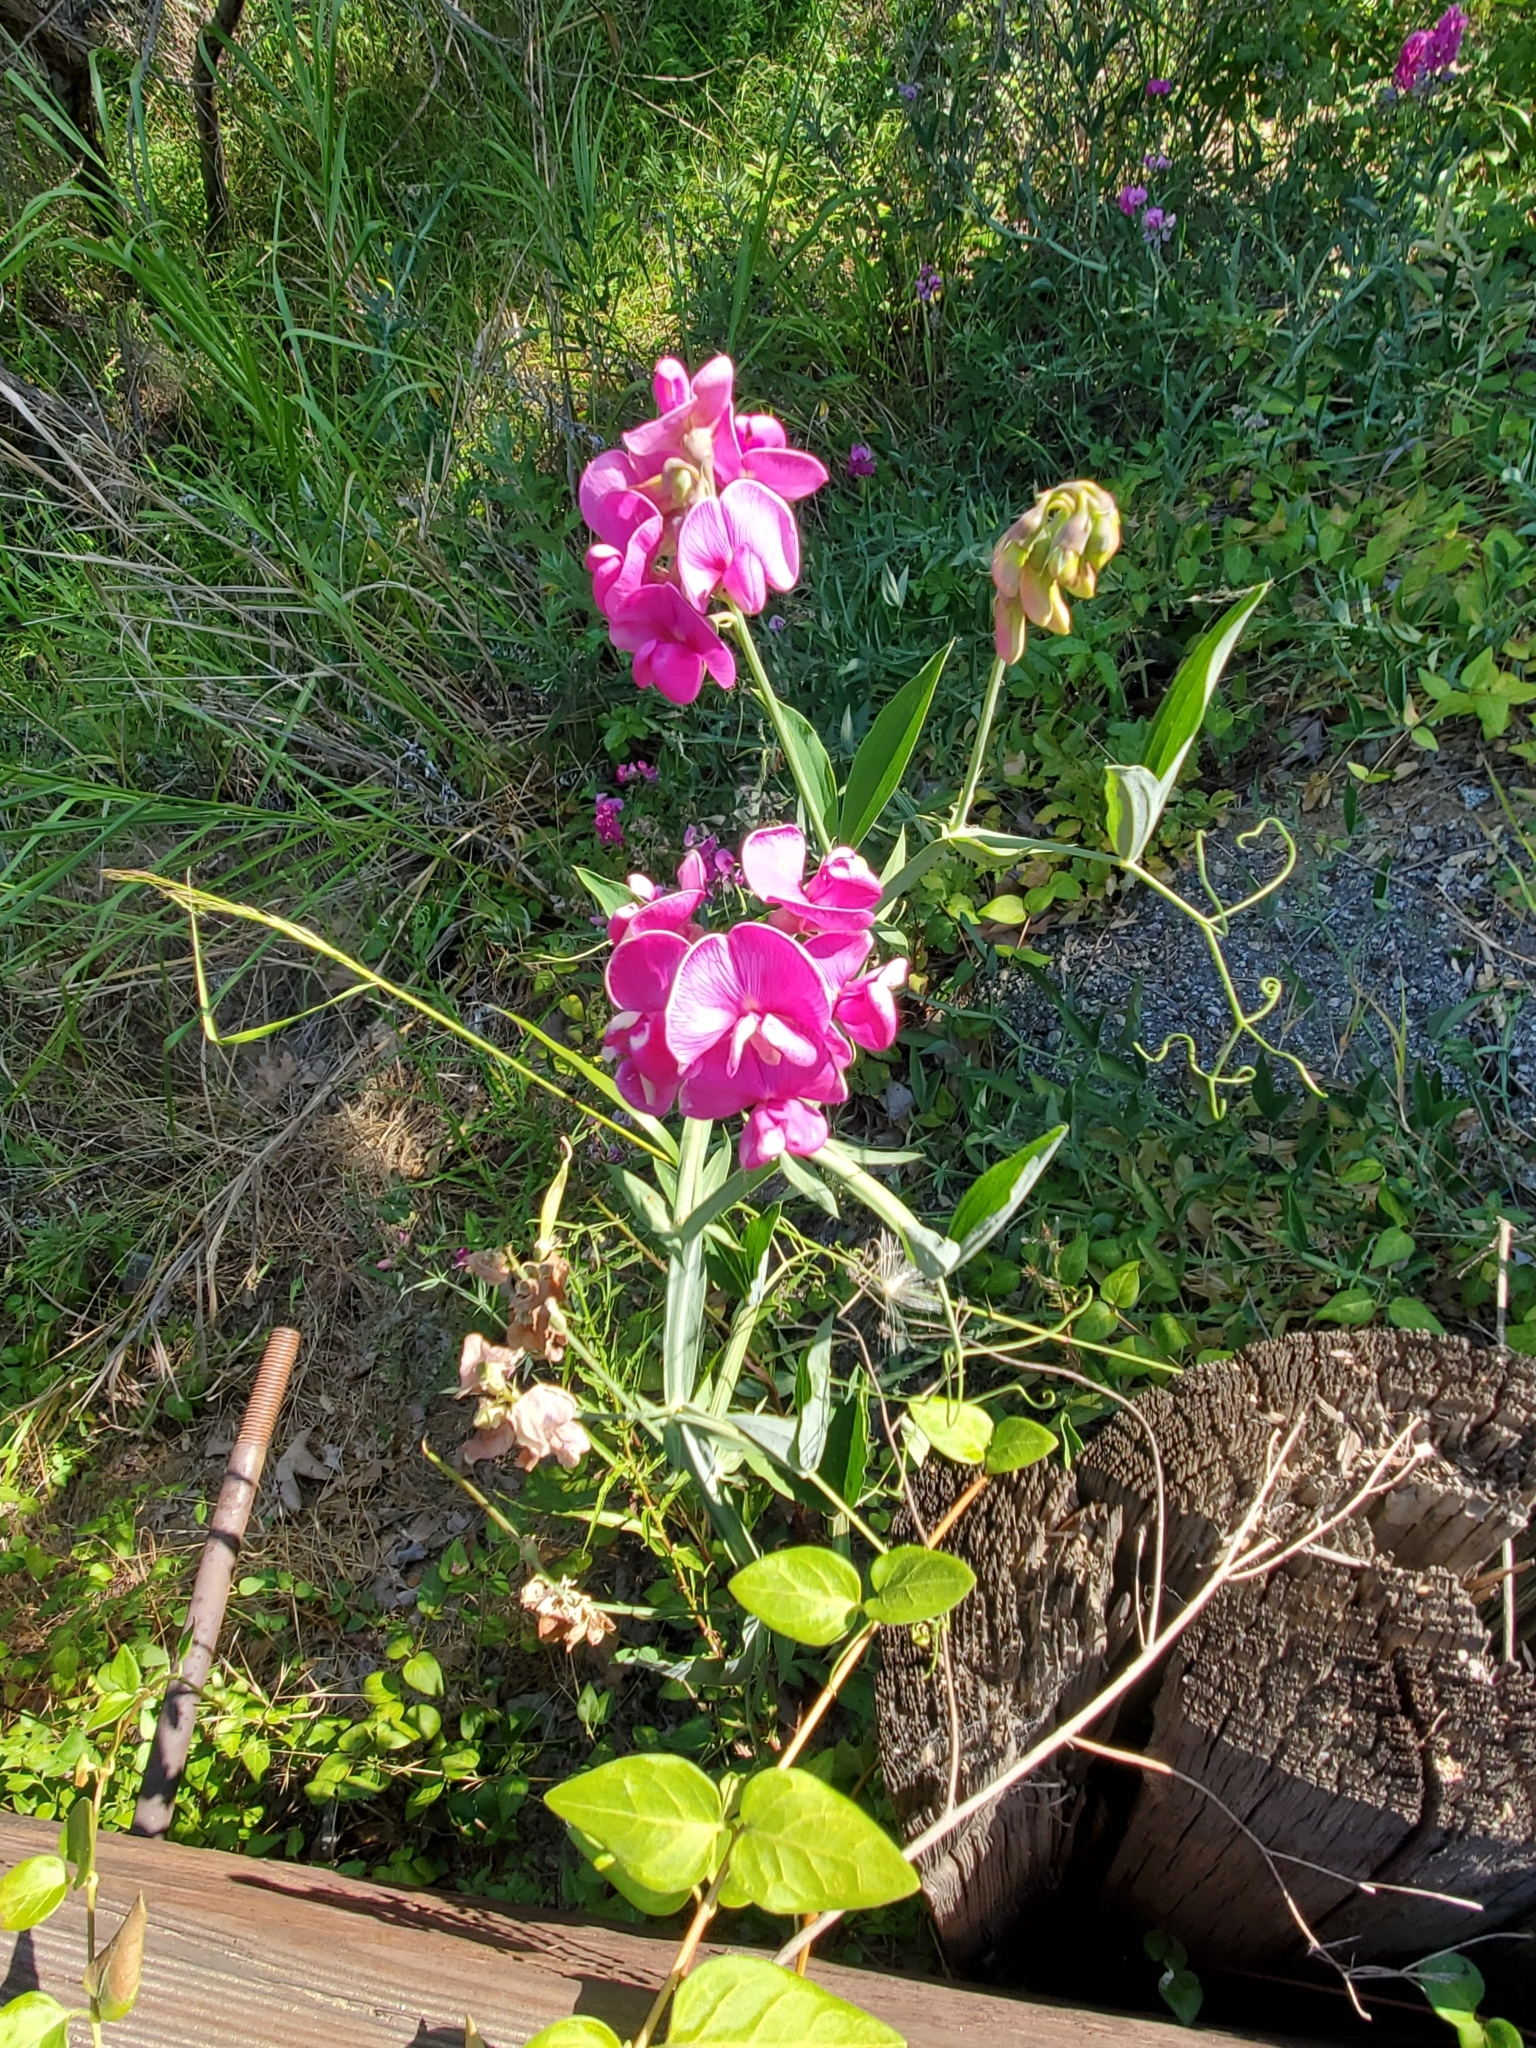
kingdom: Plantae
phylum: Tracheophyta
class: Magnoliopsida
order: Fabales
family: Fabaceae
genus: Lathyrus
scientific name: Lathyrus latifolius
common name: Perennial pea
